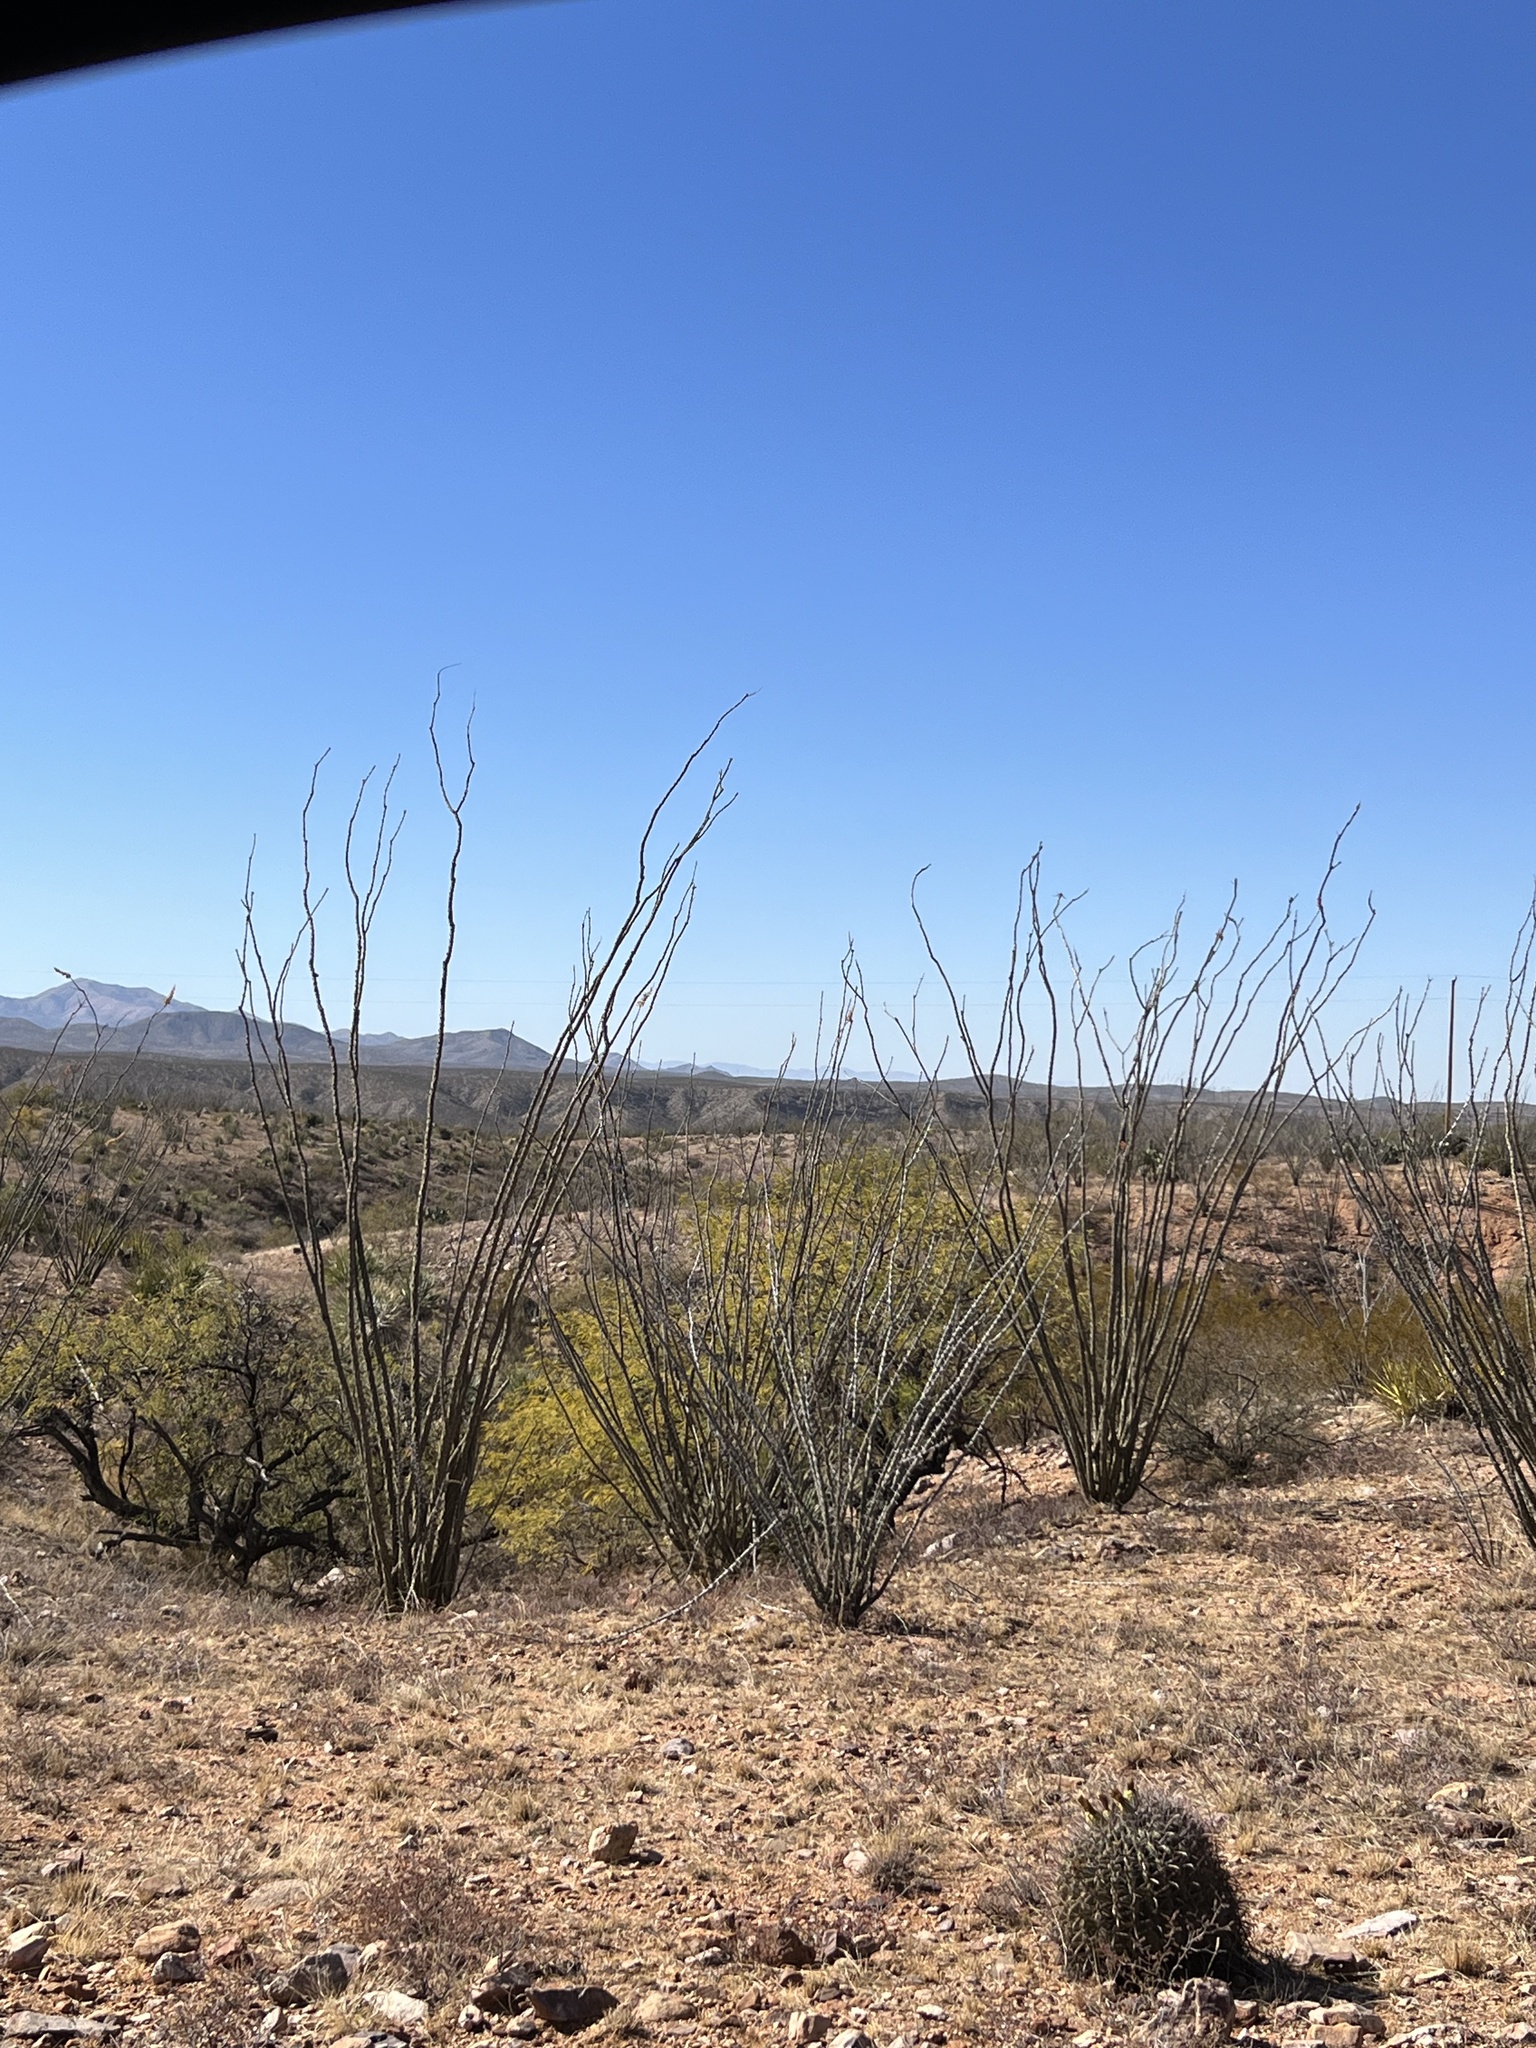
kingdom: Plantae
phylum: Tracheophyta
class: Magnoliopsida
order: Ericales
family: Fouquieriaceae
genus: Fouquieria
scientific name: Fouquieria splendens
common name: Vine-cactus
